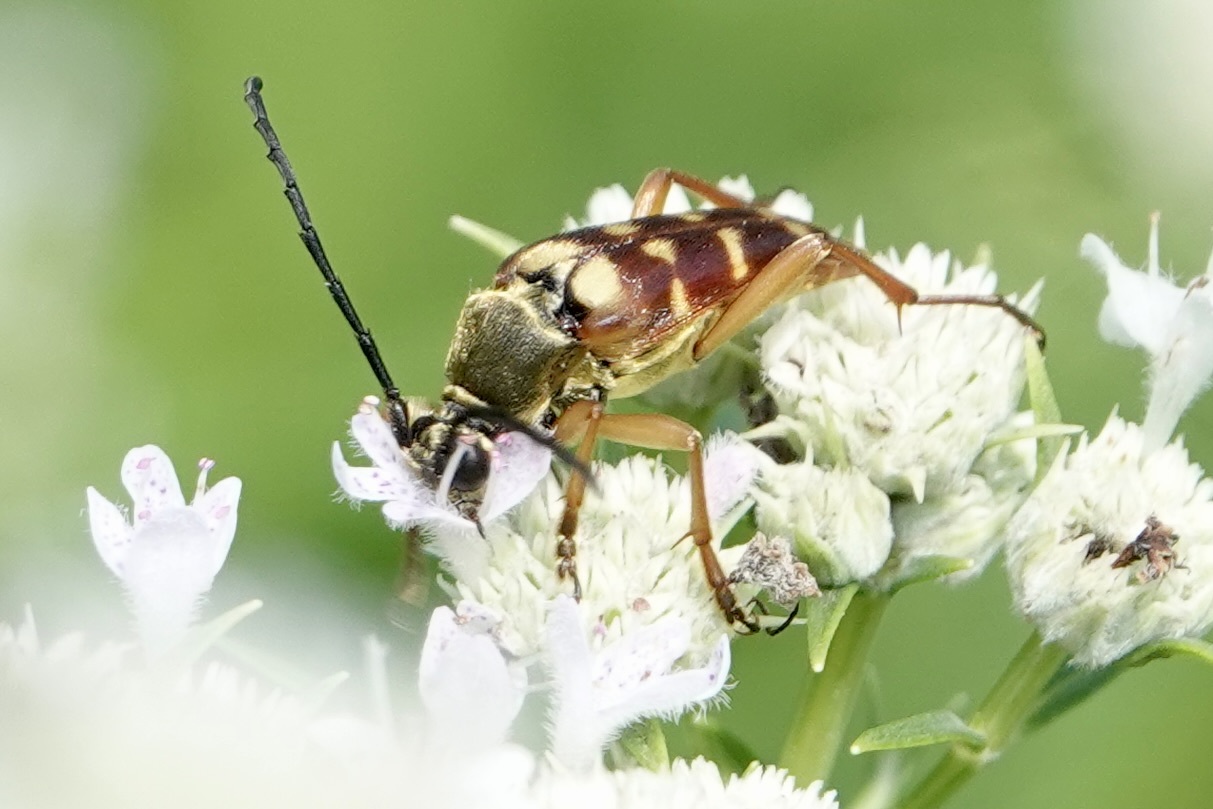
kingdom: Animalia
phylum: Arthropoda
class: Insecta
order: Coleoptera
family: Cerambycidae
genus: Typocerus
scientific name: Typocerus velutinus
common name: Banded longhorn beetle
